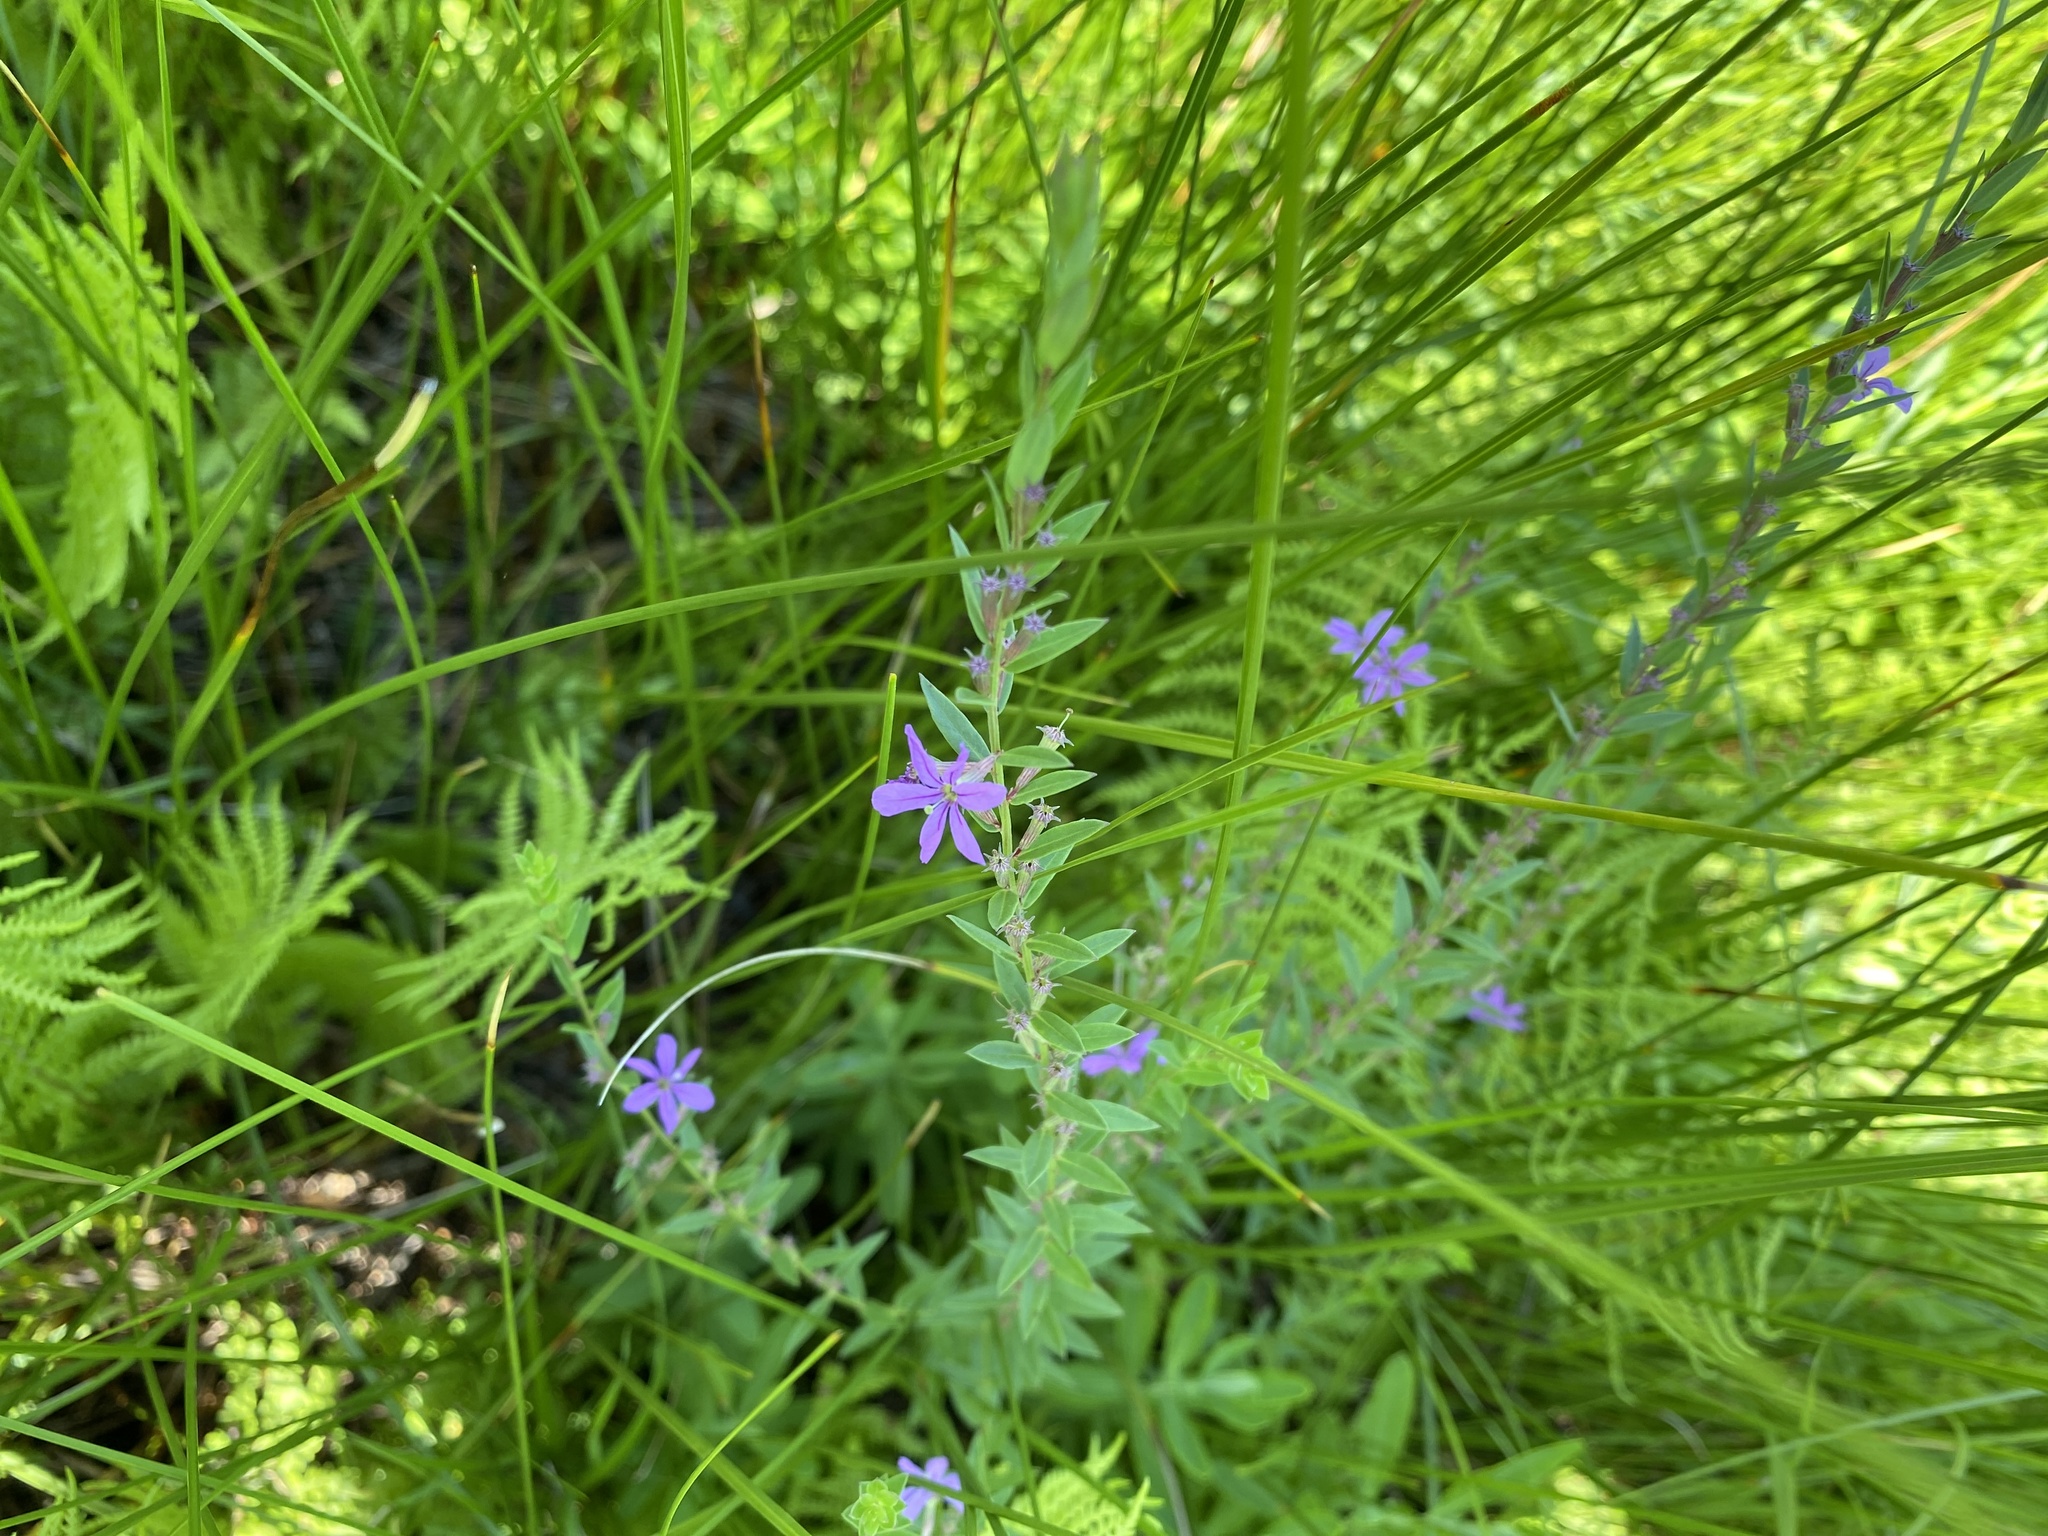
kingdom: Plantae
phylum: Tracheophyta
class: Magnoliopsida
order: Myrtales
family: Lythraceae
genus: Lythrum
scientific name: Lythrum alatum
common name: Winged loosestrife
